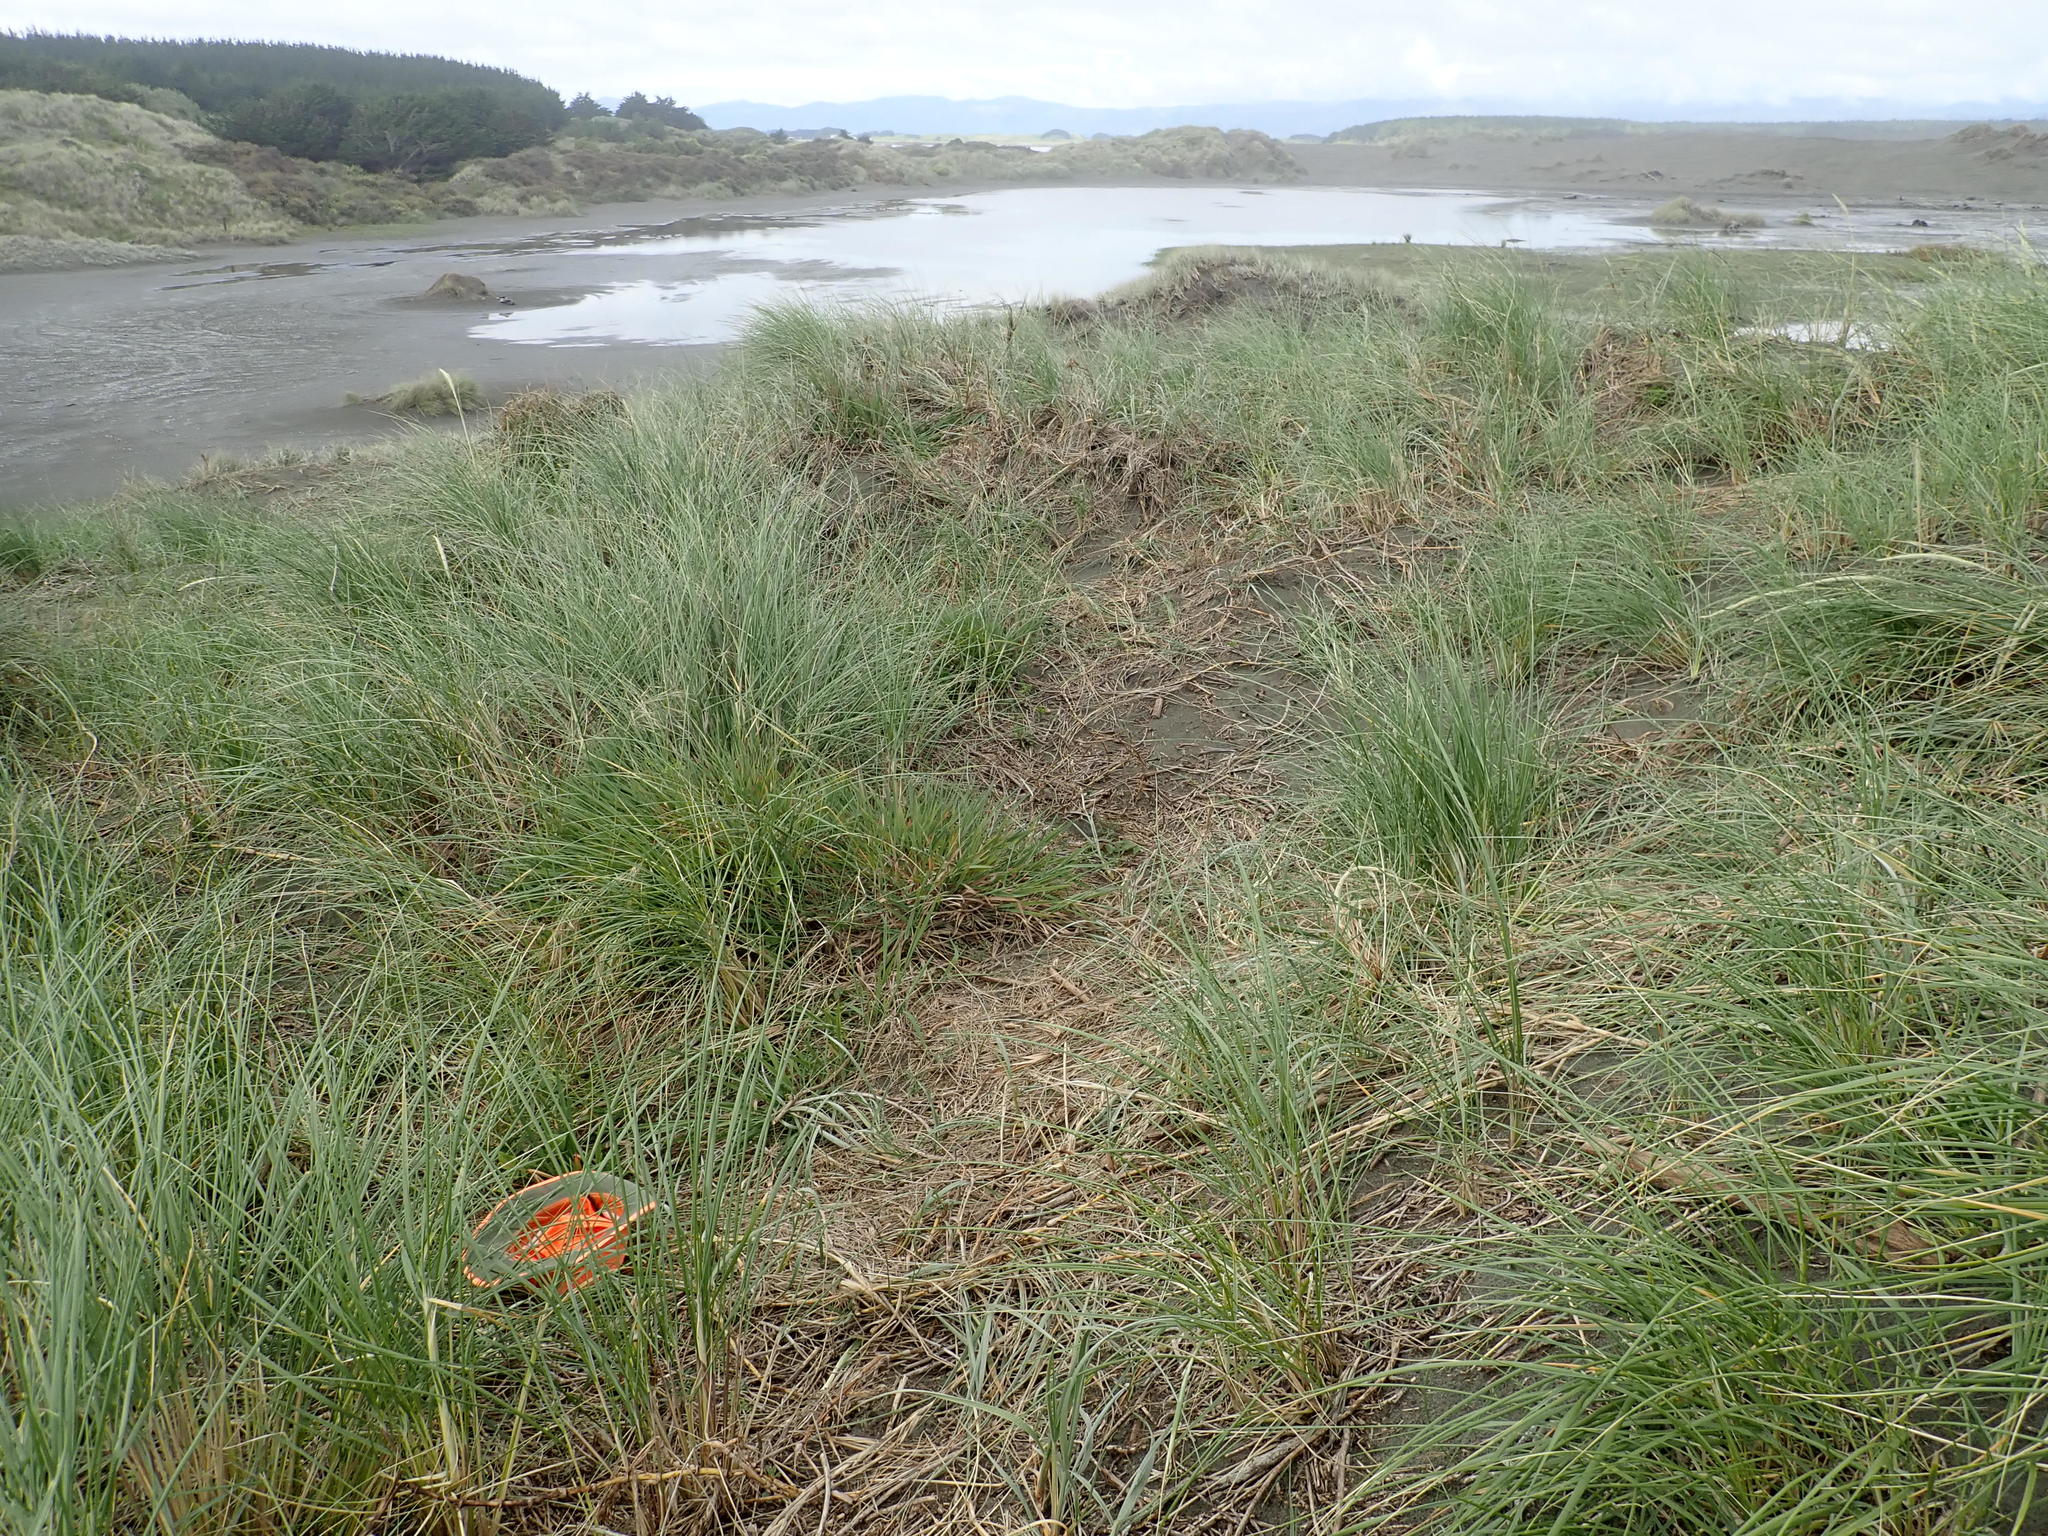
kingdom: Plantae
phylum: Tracheophyta
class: Magnoliopsida
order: Asterales
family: Asteraceae
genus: Sonchus
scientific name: Sonchus oleraceus
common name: Common sowthistle
